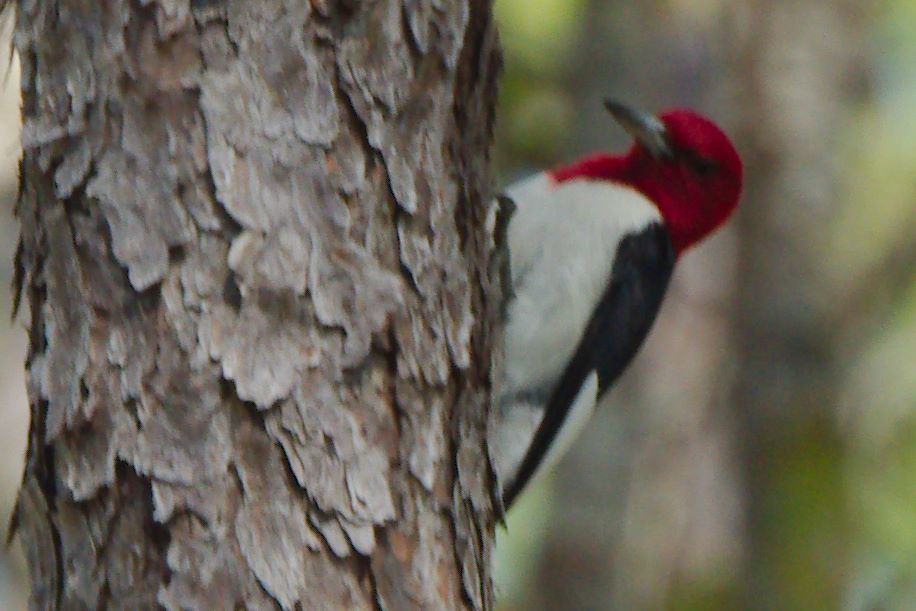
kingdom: Animalia
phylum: Chordata
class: Aves
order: Piciformes
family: Picidae
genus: Melanerpes
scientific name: Melanerpes erythrocephalus
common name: Red-headed woodpecker
